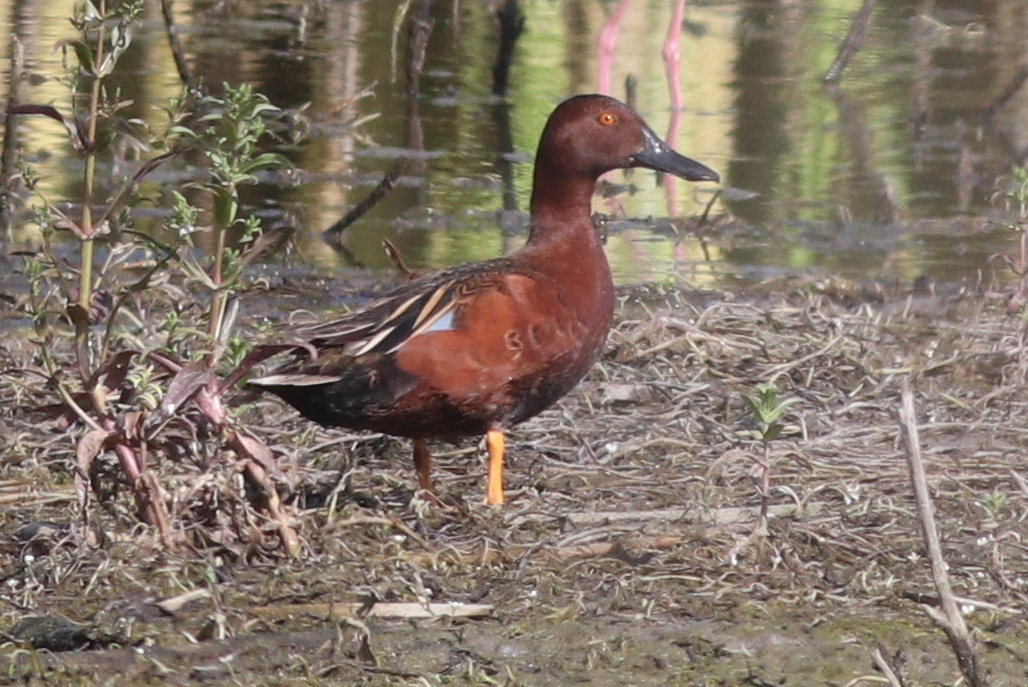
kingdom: Animalia
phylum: Chordata
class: Aves
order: Anseriformes
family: Anatidae
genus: Spatula
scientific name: Spatula cyanoptera
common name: Cinnamon teal
